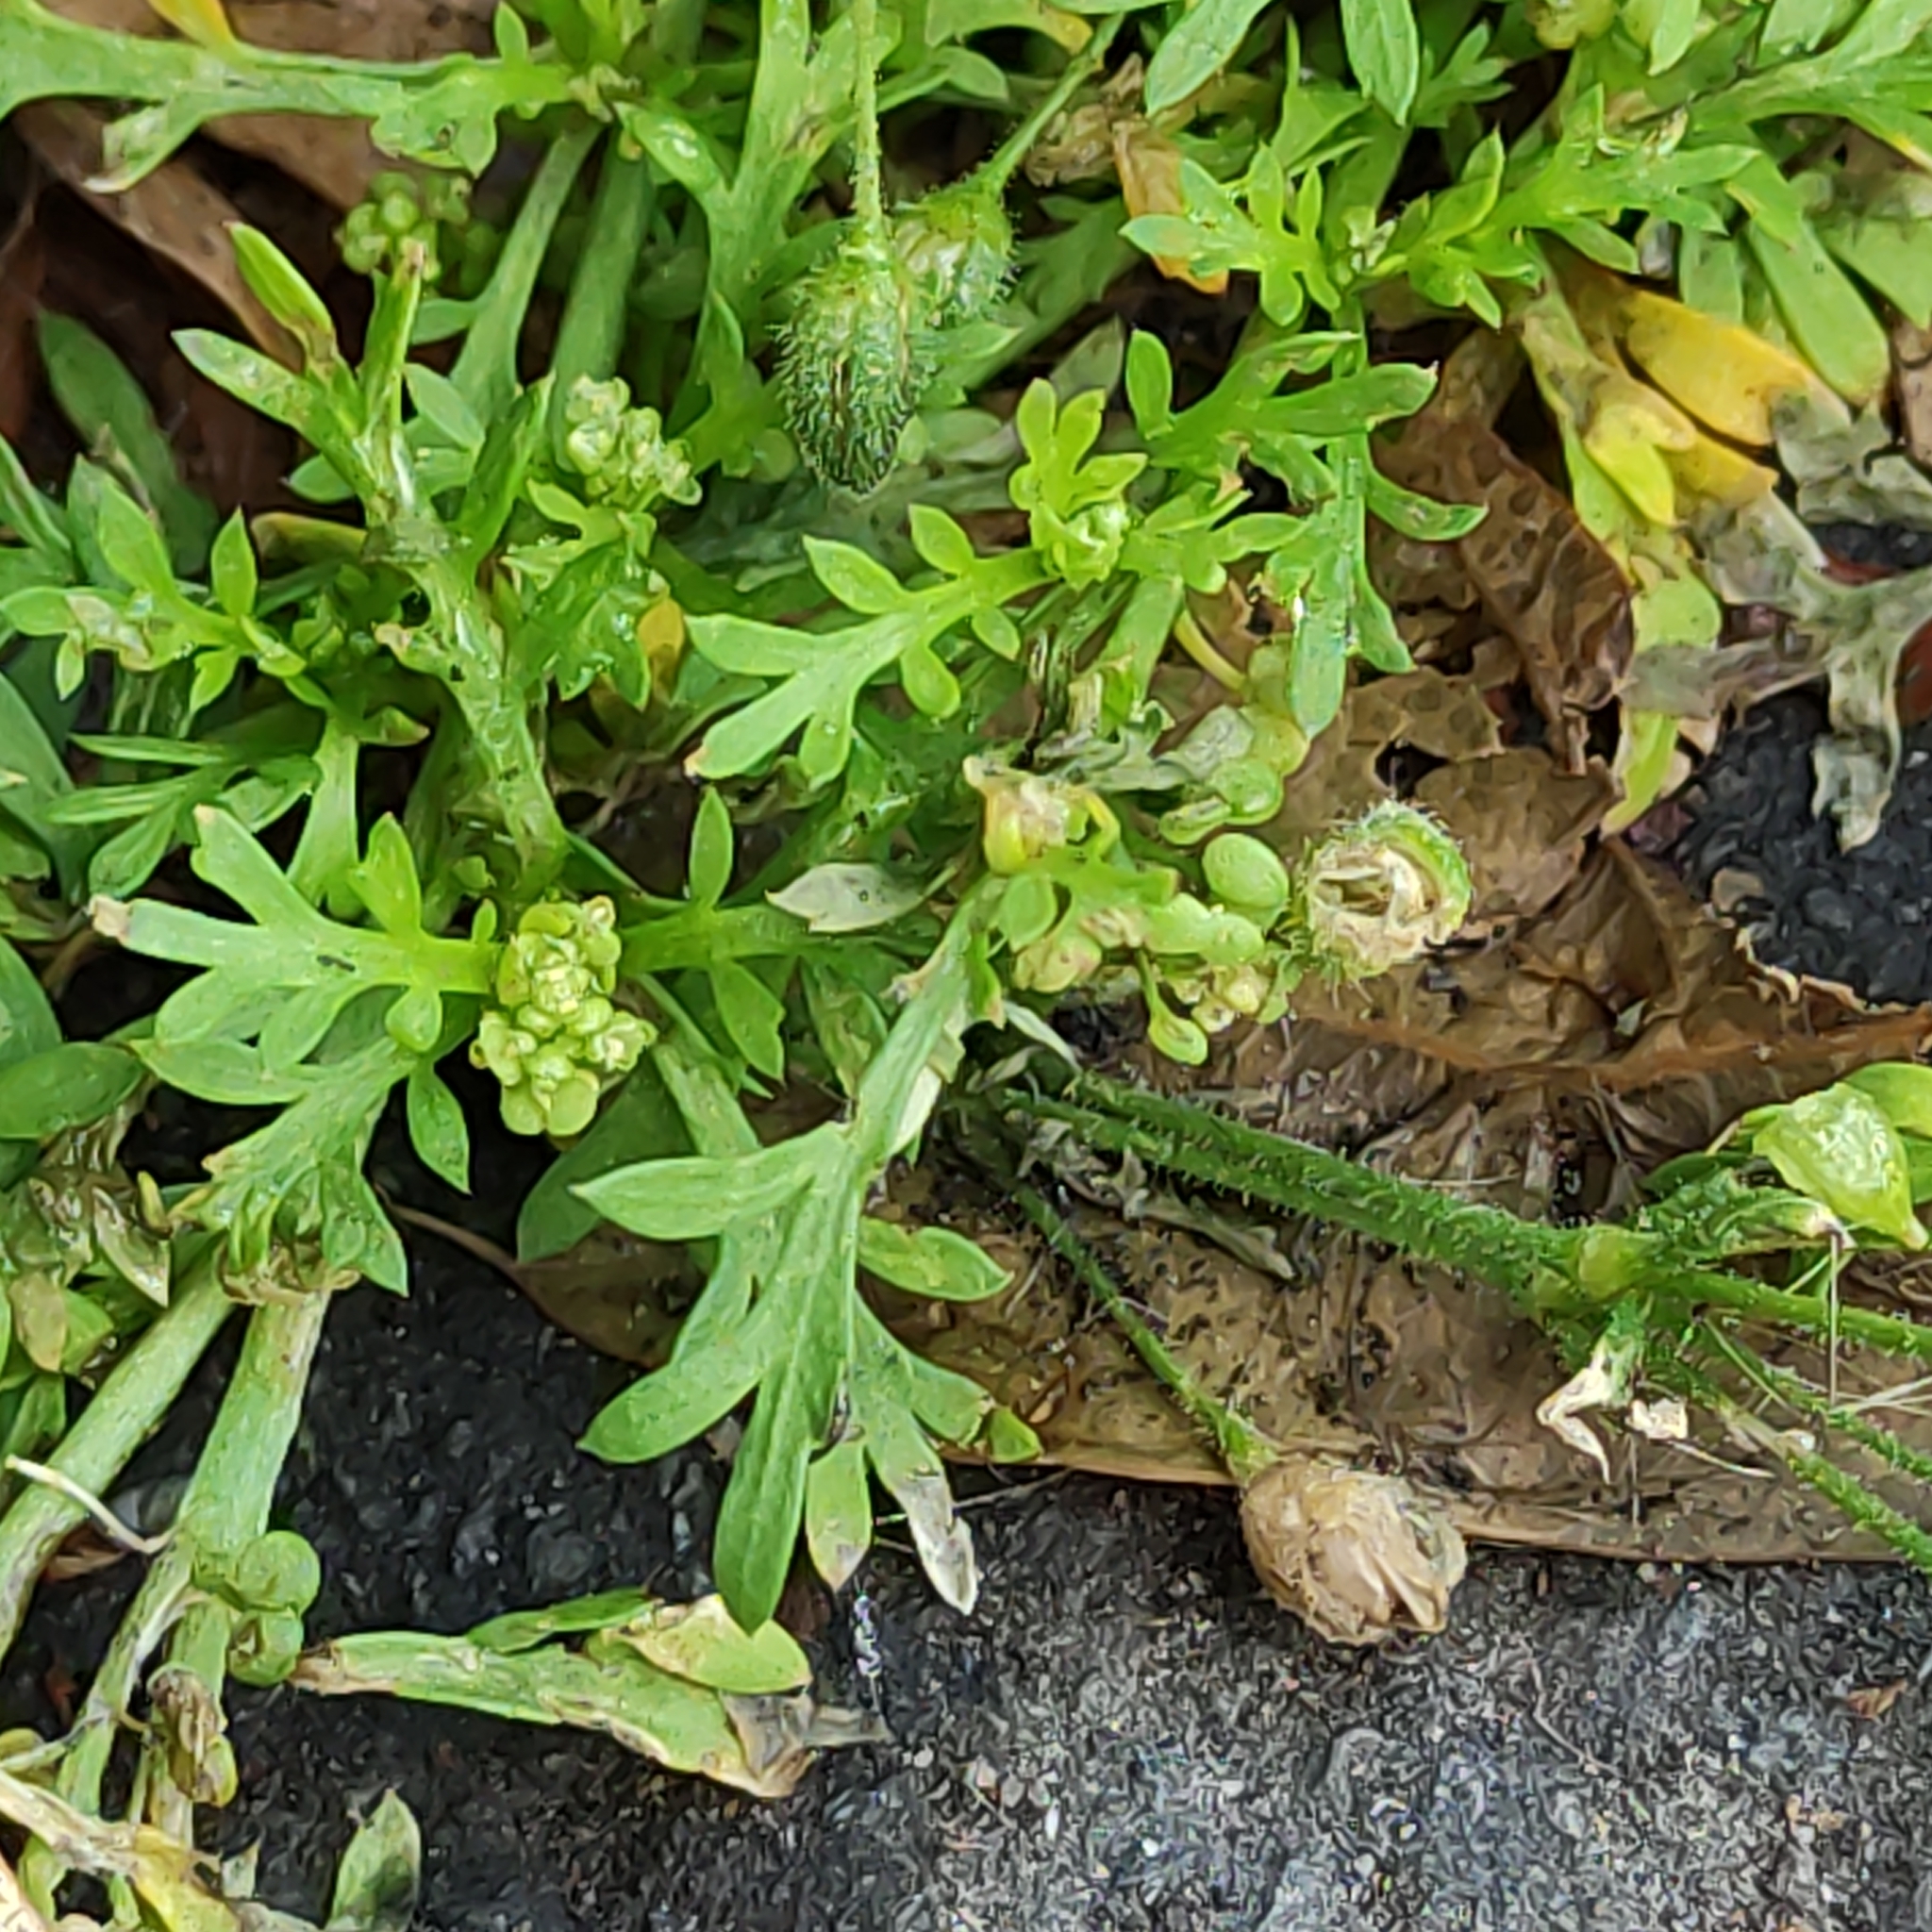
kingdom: Plantae
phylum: Tracheophyta
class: Magnoliopsida
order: Brassicales
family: Brassicaceae
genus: Lepidium
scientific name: Lepidium didymum
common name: Lesser swinecress
